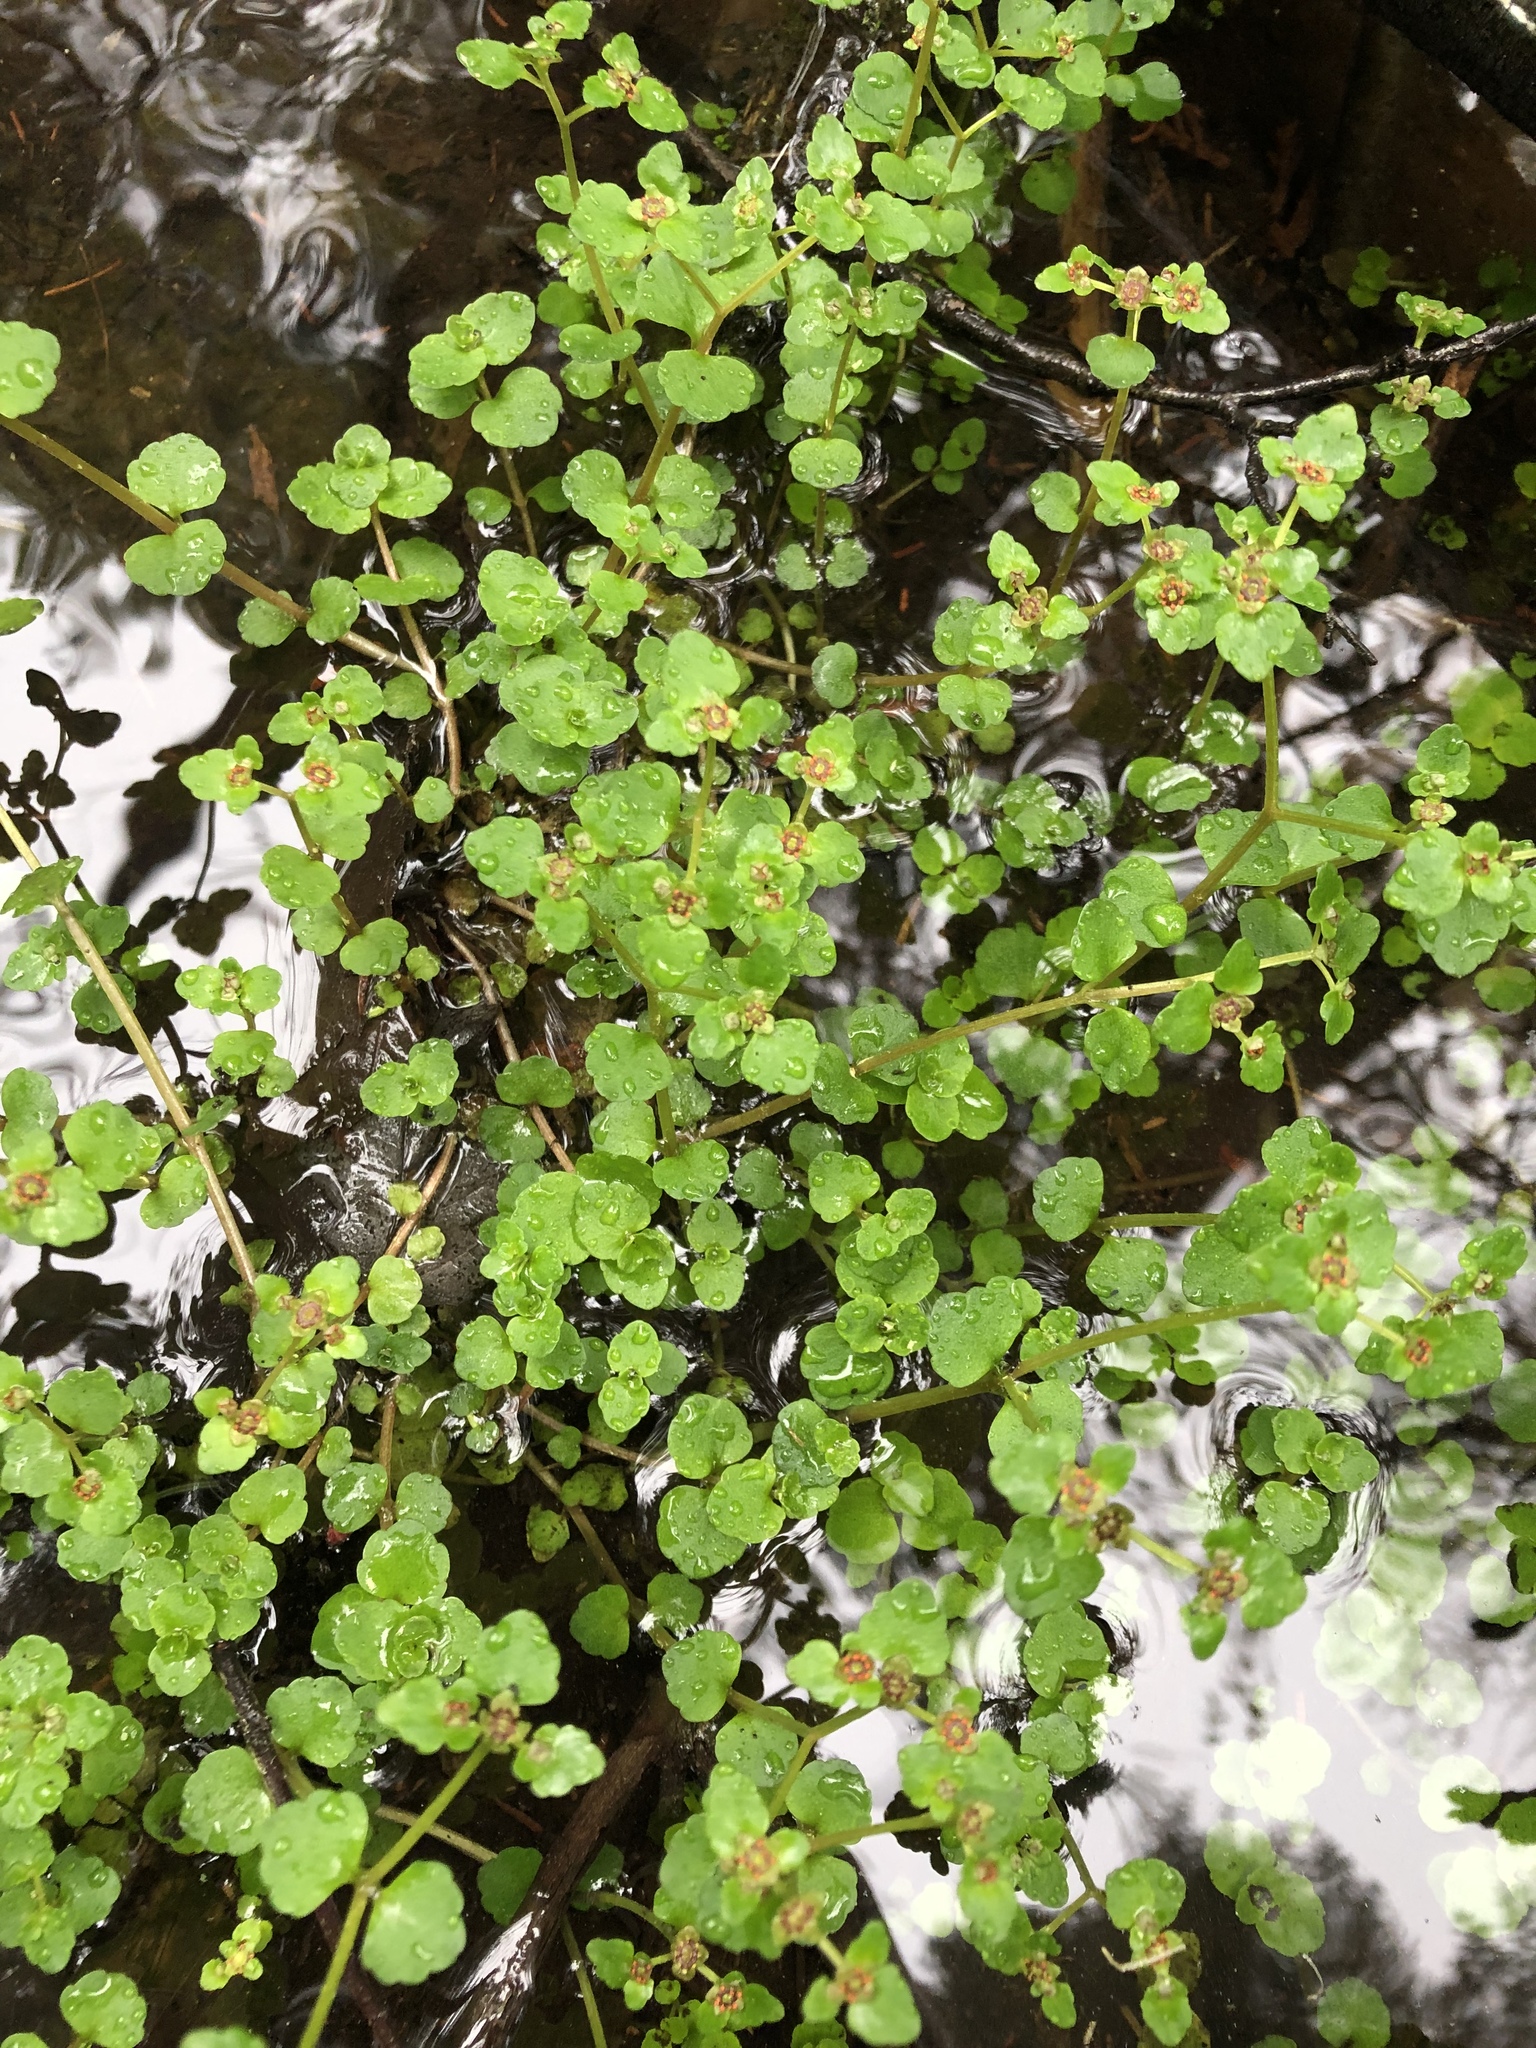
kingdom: Plantae
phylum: Tracheophyta
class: Magnoliopsida
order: Saxifragales
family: Saxifragaceae
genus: Chrysosplenium
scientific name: Chrysosplenium americanum
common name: American golden-saxifrage
